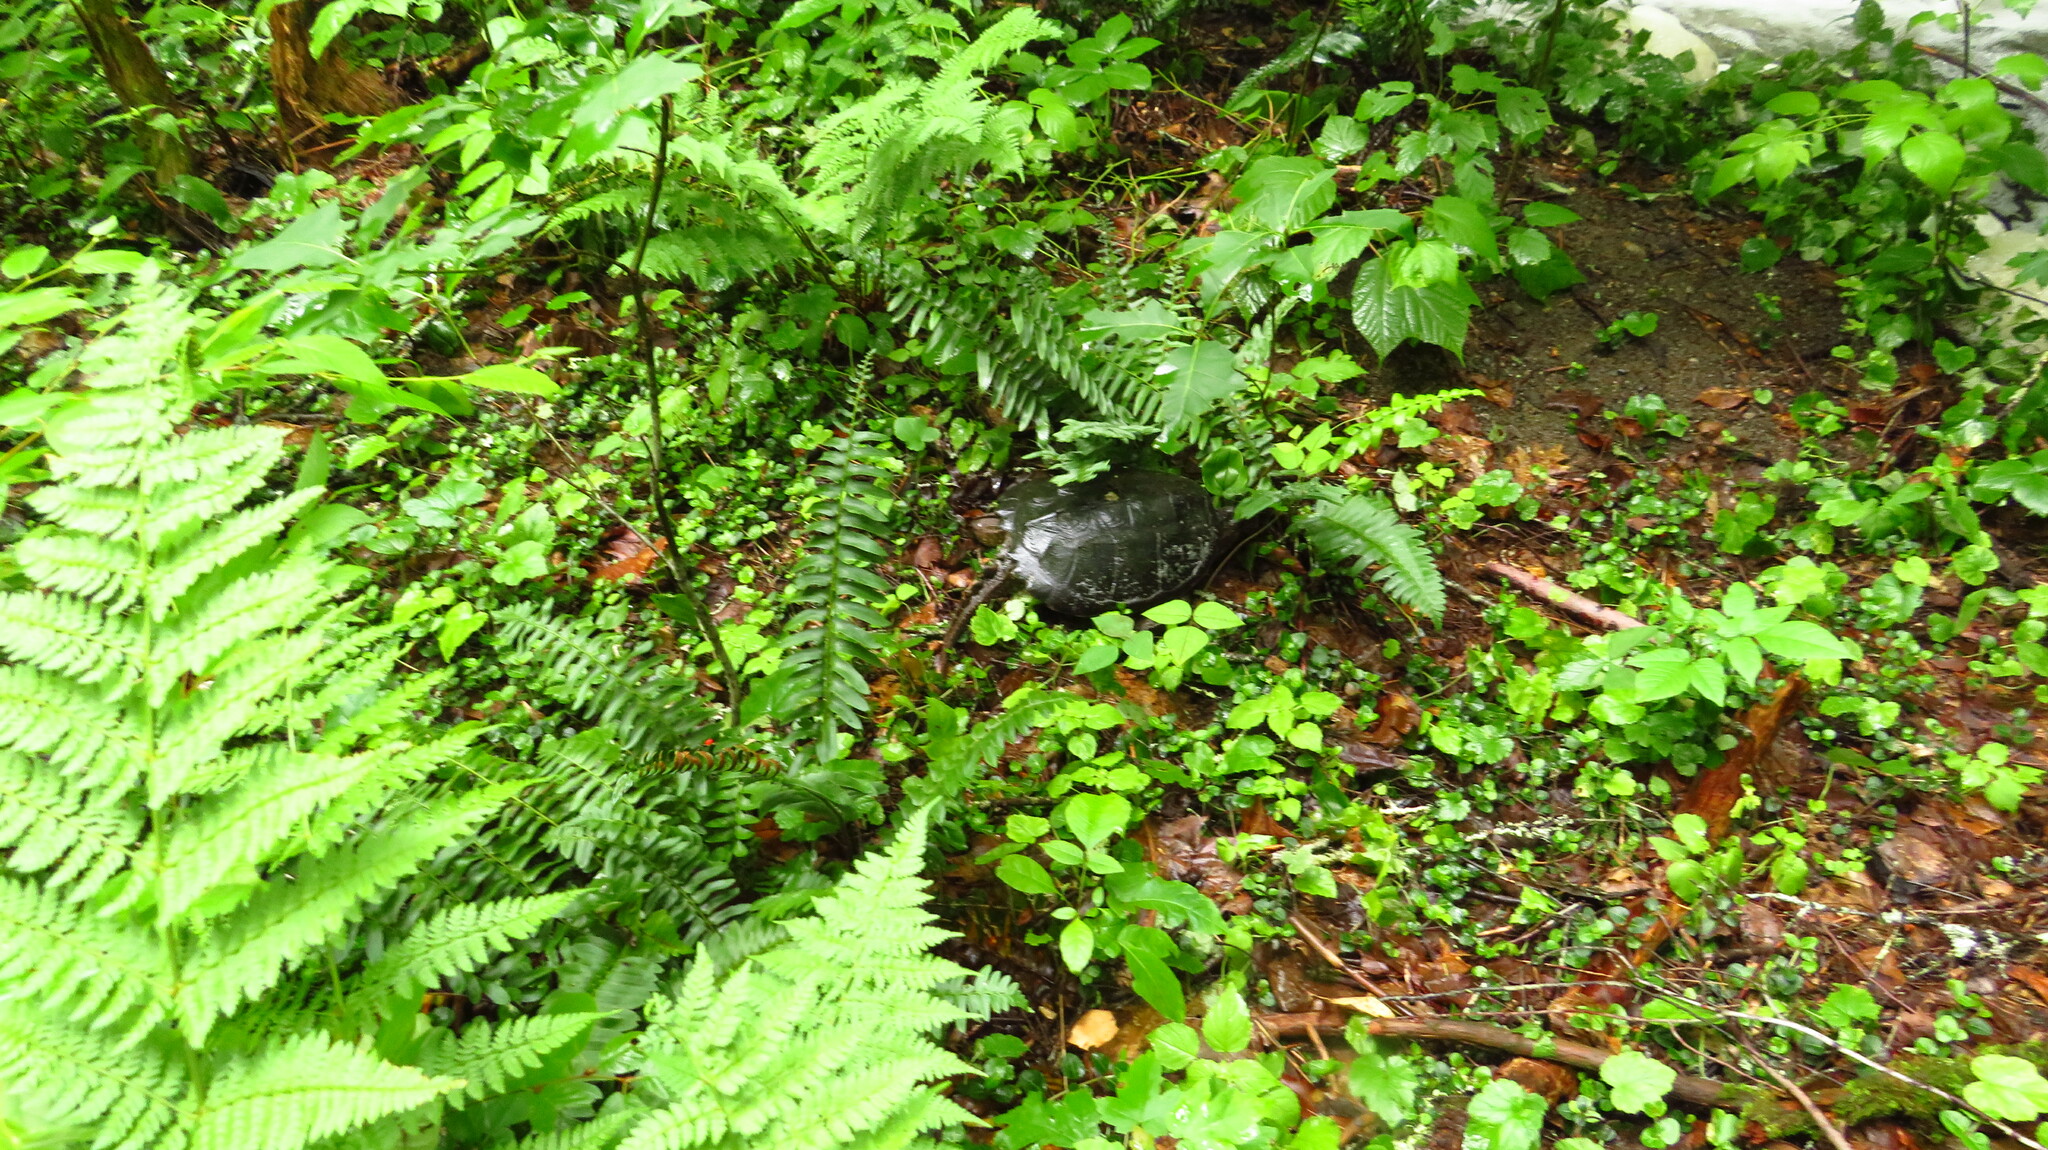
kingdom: Animalia
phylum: Chordata
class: Testudines
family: Chelydridae
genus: Chelydra
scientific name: Chelydra serpentina
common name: Common snapping turtle
